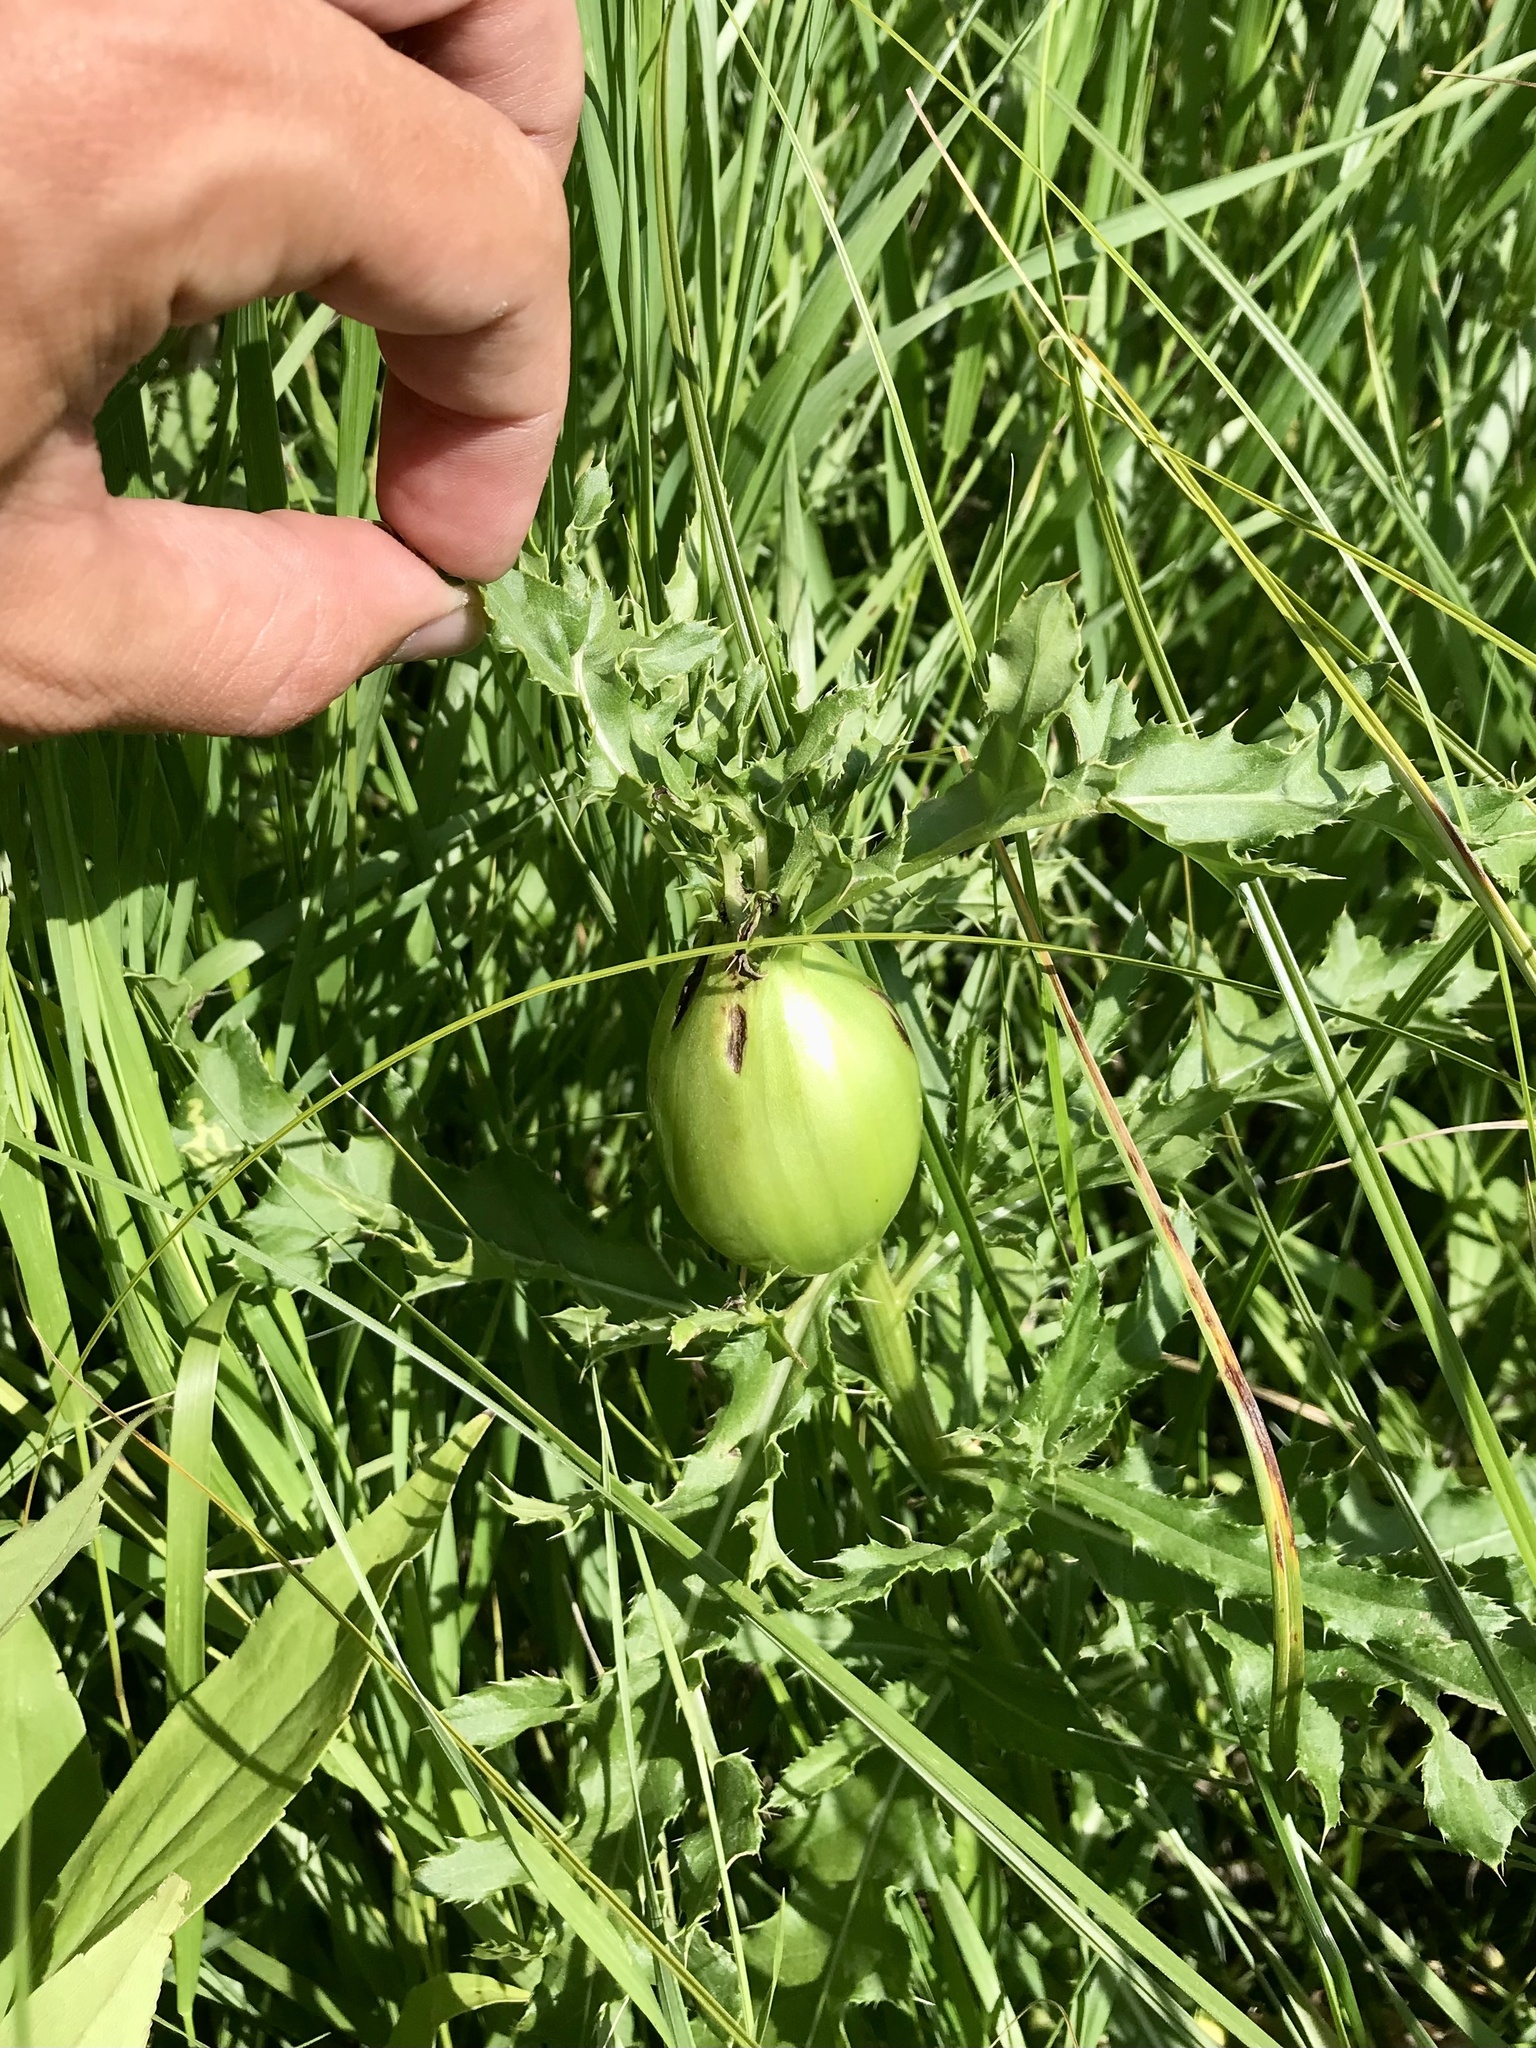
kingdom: Animalia
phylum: Arthropoda
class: Insecta
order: Diptera
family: Tephritidae
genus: Urophora
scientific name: Urophora cardui
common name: Fruit fly
